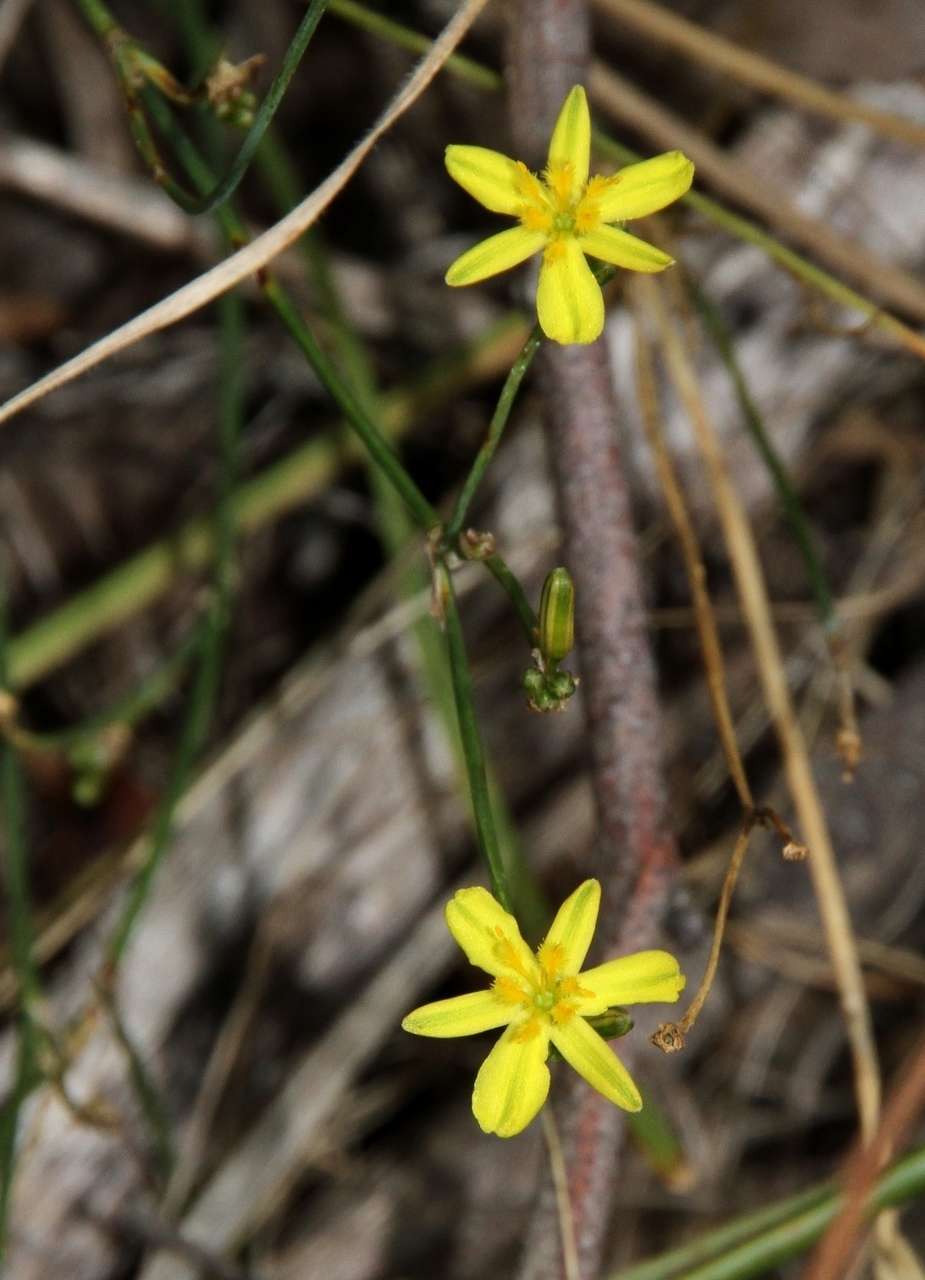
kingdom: Plantae
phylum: Tracheophyta
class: Liliopsida
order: Asparagales
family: Asphodelaceae
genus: Tricoryne
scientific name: Tricoryne elatior
